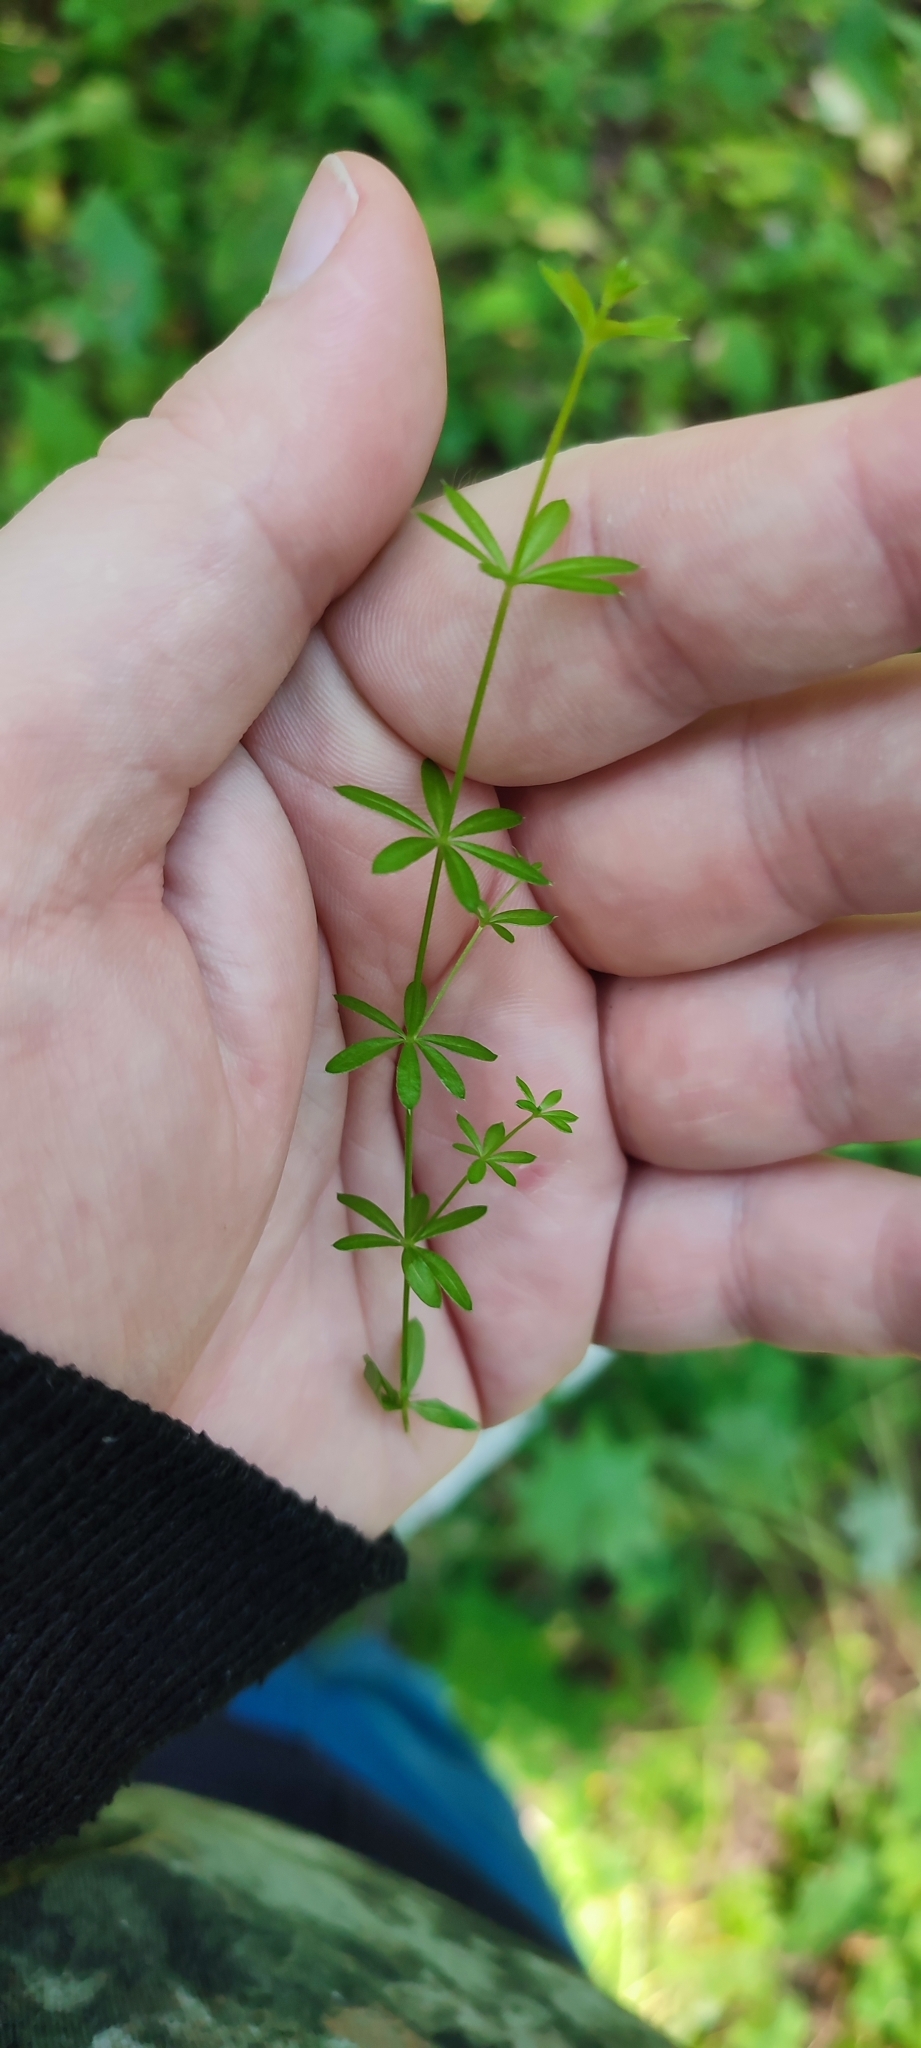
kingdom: Plantae
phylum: Tracheophyta
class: Magnoliopsida
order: Gentianales
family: Rubiaceae
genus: Galium
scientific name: Galium mollugo
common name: Hedge bedstraw
